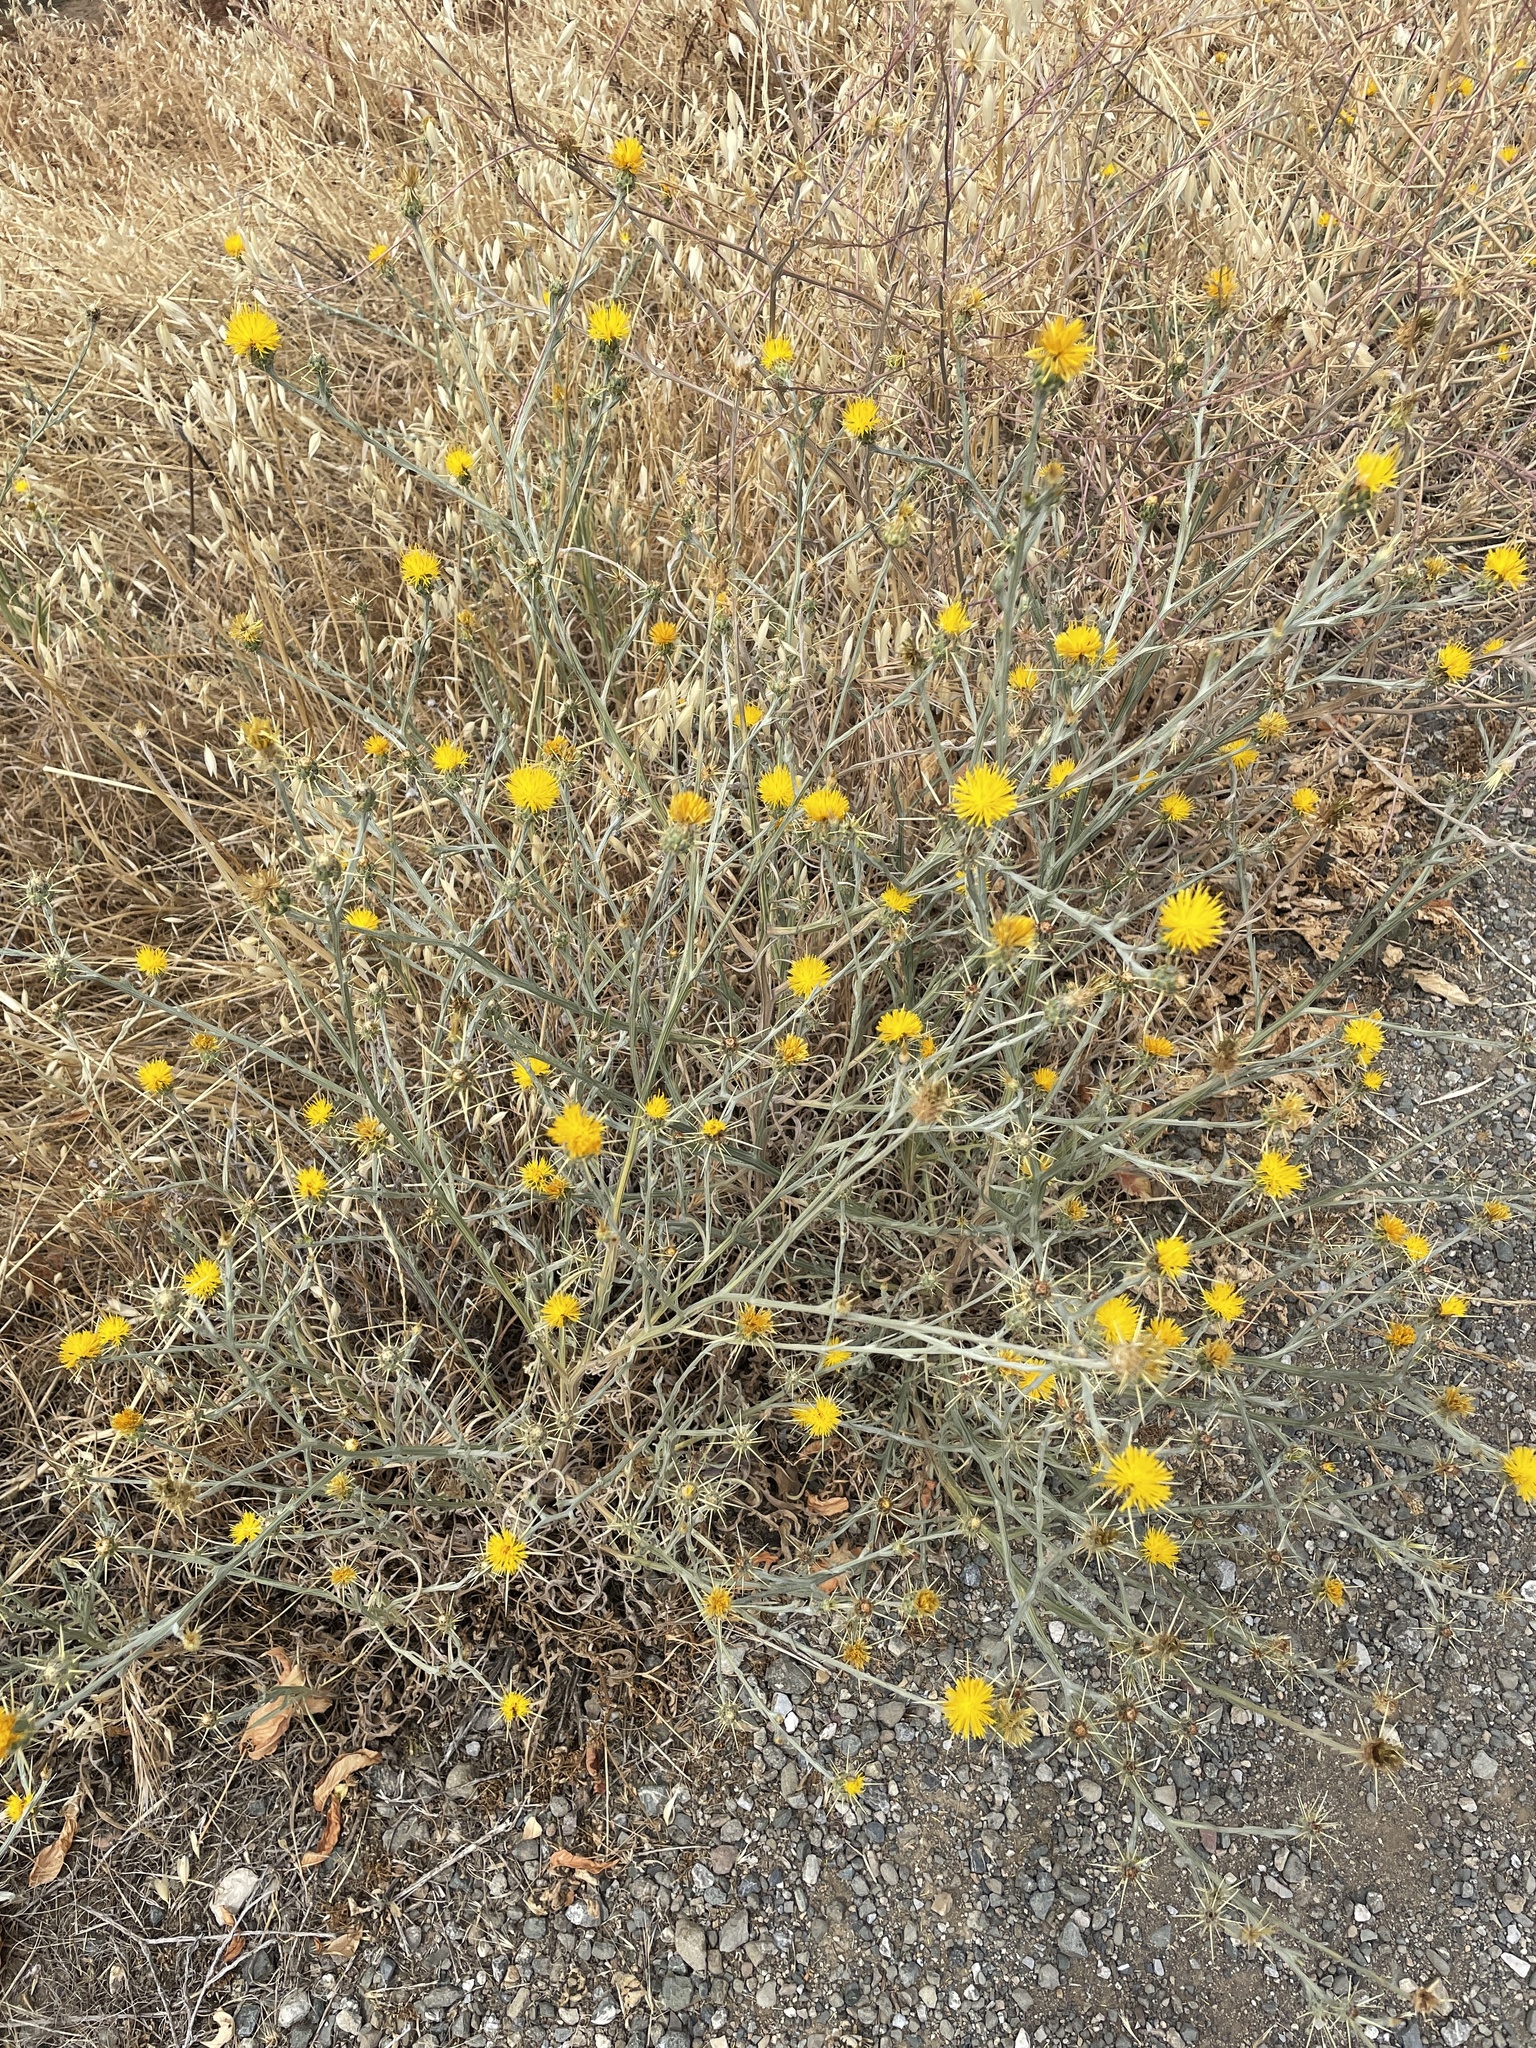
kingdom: Plantae
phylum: Tracheophyta
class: Magnoliopsida
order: Asterales
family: Asteraceae
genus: Centaurea
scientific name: Centaurea solstitialis
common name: Yellow star-thistle
